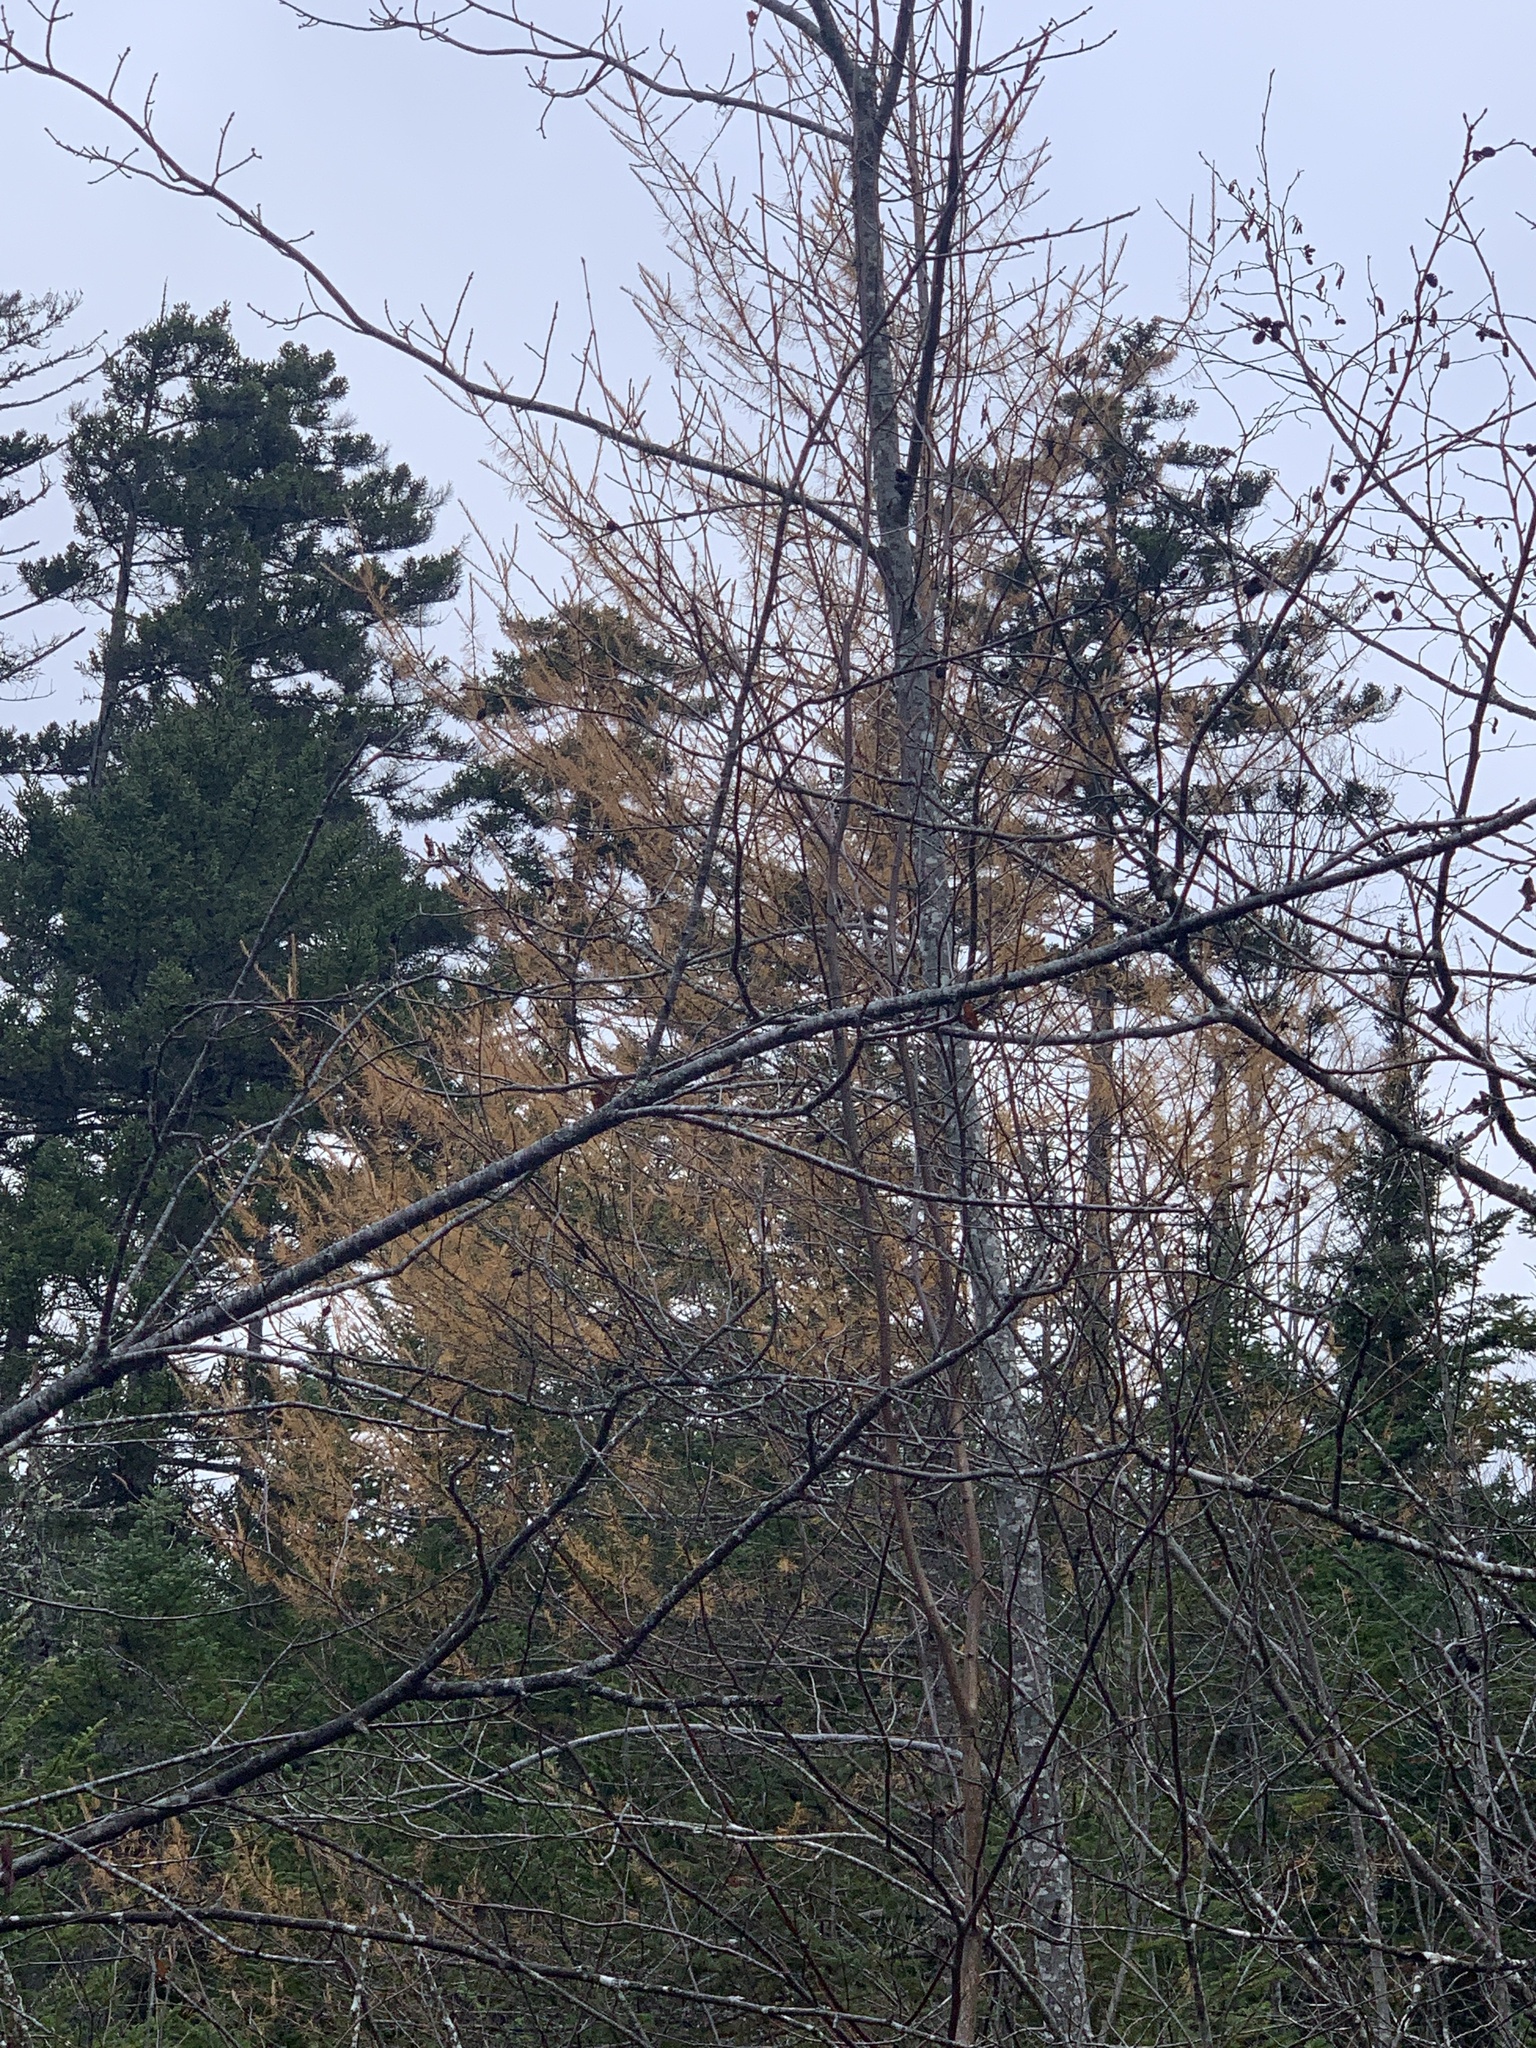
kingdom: Plantae
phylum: Tracheophyta
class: Pinopsida
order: Pinales
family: Pinaceae
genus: Larix
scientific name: Larix laricina
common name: American larch
